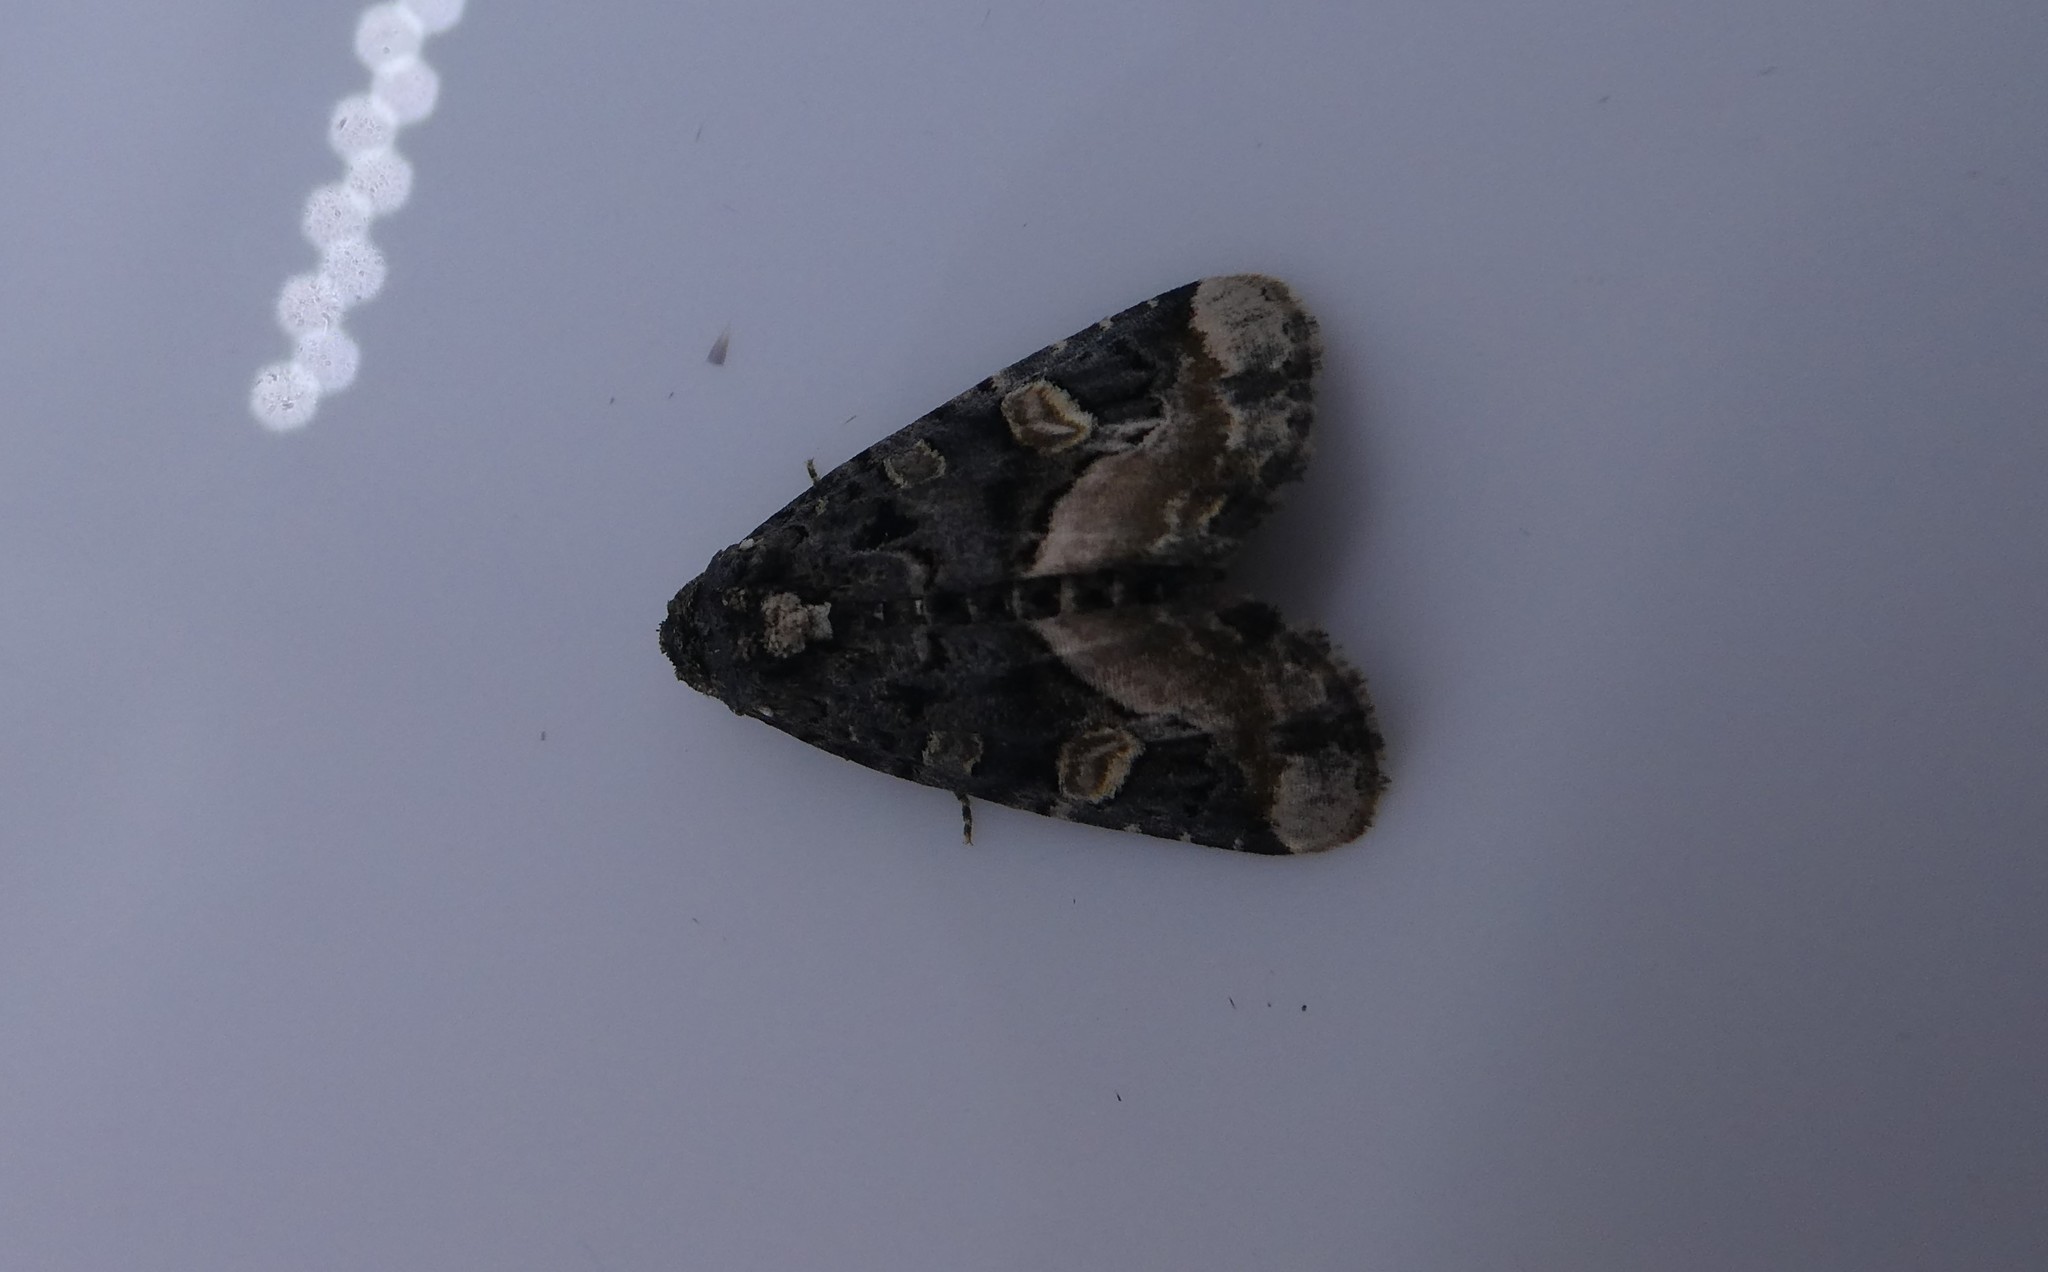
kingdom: Animalia
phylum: Arthropoda
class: Insecta
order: Lepidoptera
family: Noctuidae
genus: Homophoberia
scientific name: Homophoberia apicosa
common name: Black wedge-spot
